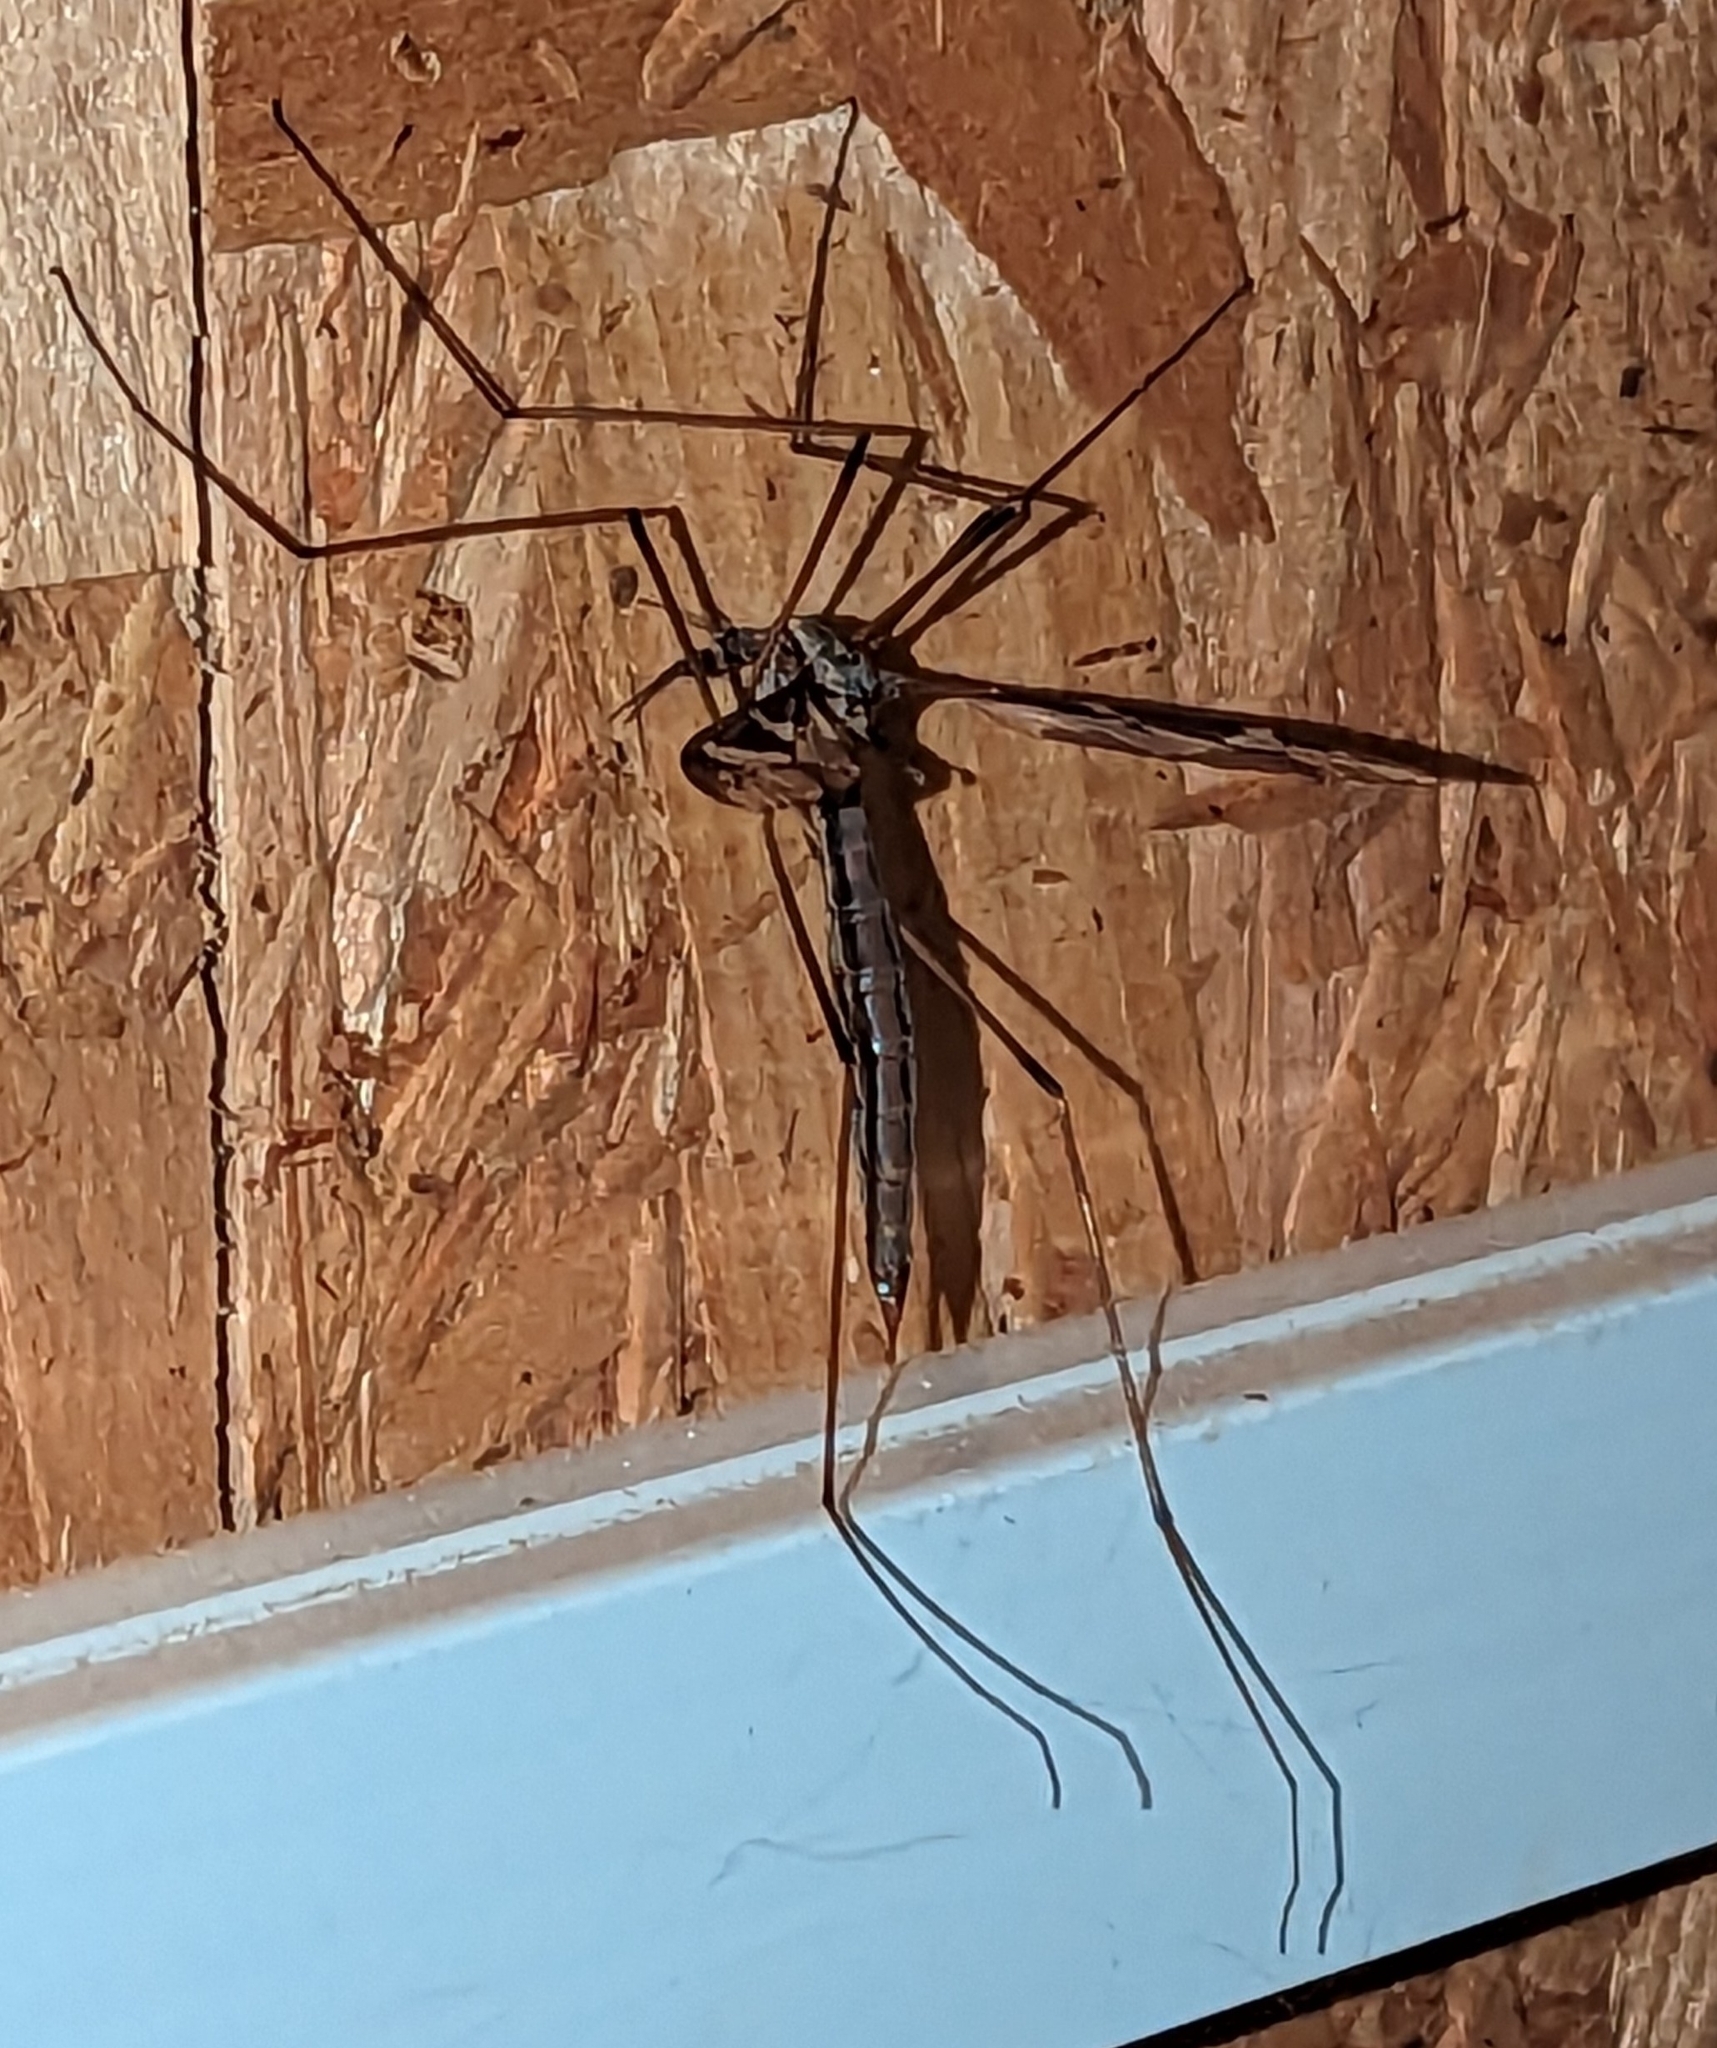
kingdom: Animalia
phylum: Arthropoda
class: Insecta
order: Diptera
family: Tipulidae
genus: Tipula
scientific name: Tipula maxima
